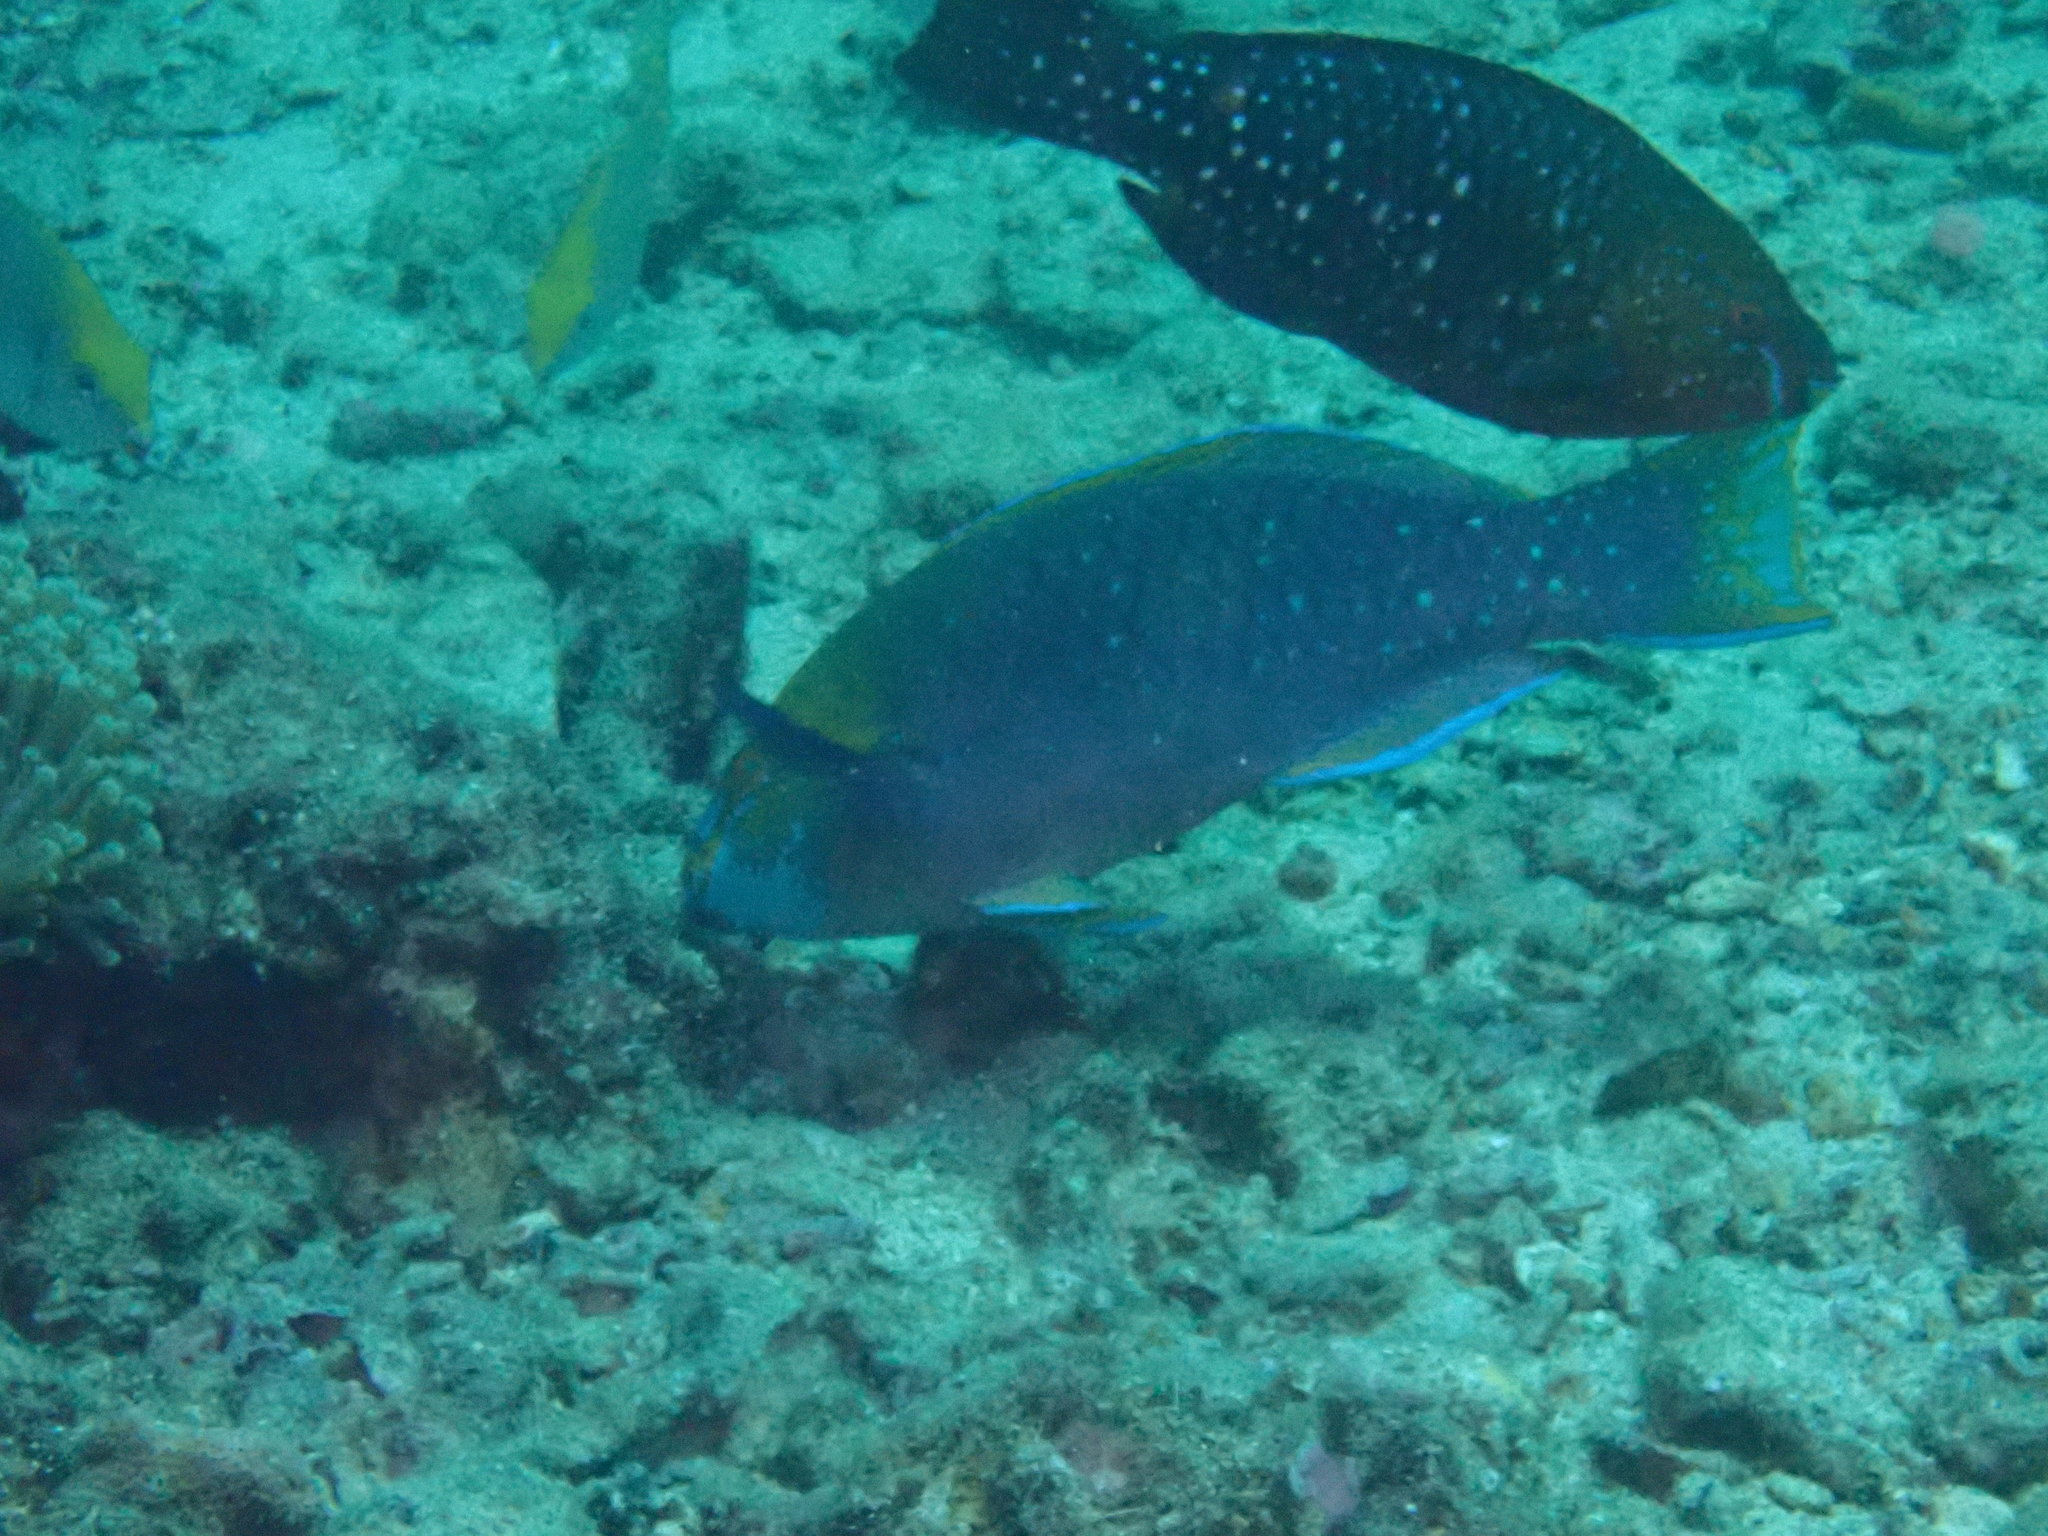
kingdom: Animalia
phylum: Chordata
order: Perciformes
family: Scaridae
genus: Scarus
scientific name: Scarus prasiognathos
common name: Singapore parrotfish
